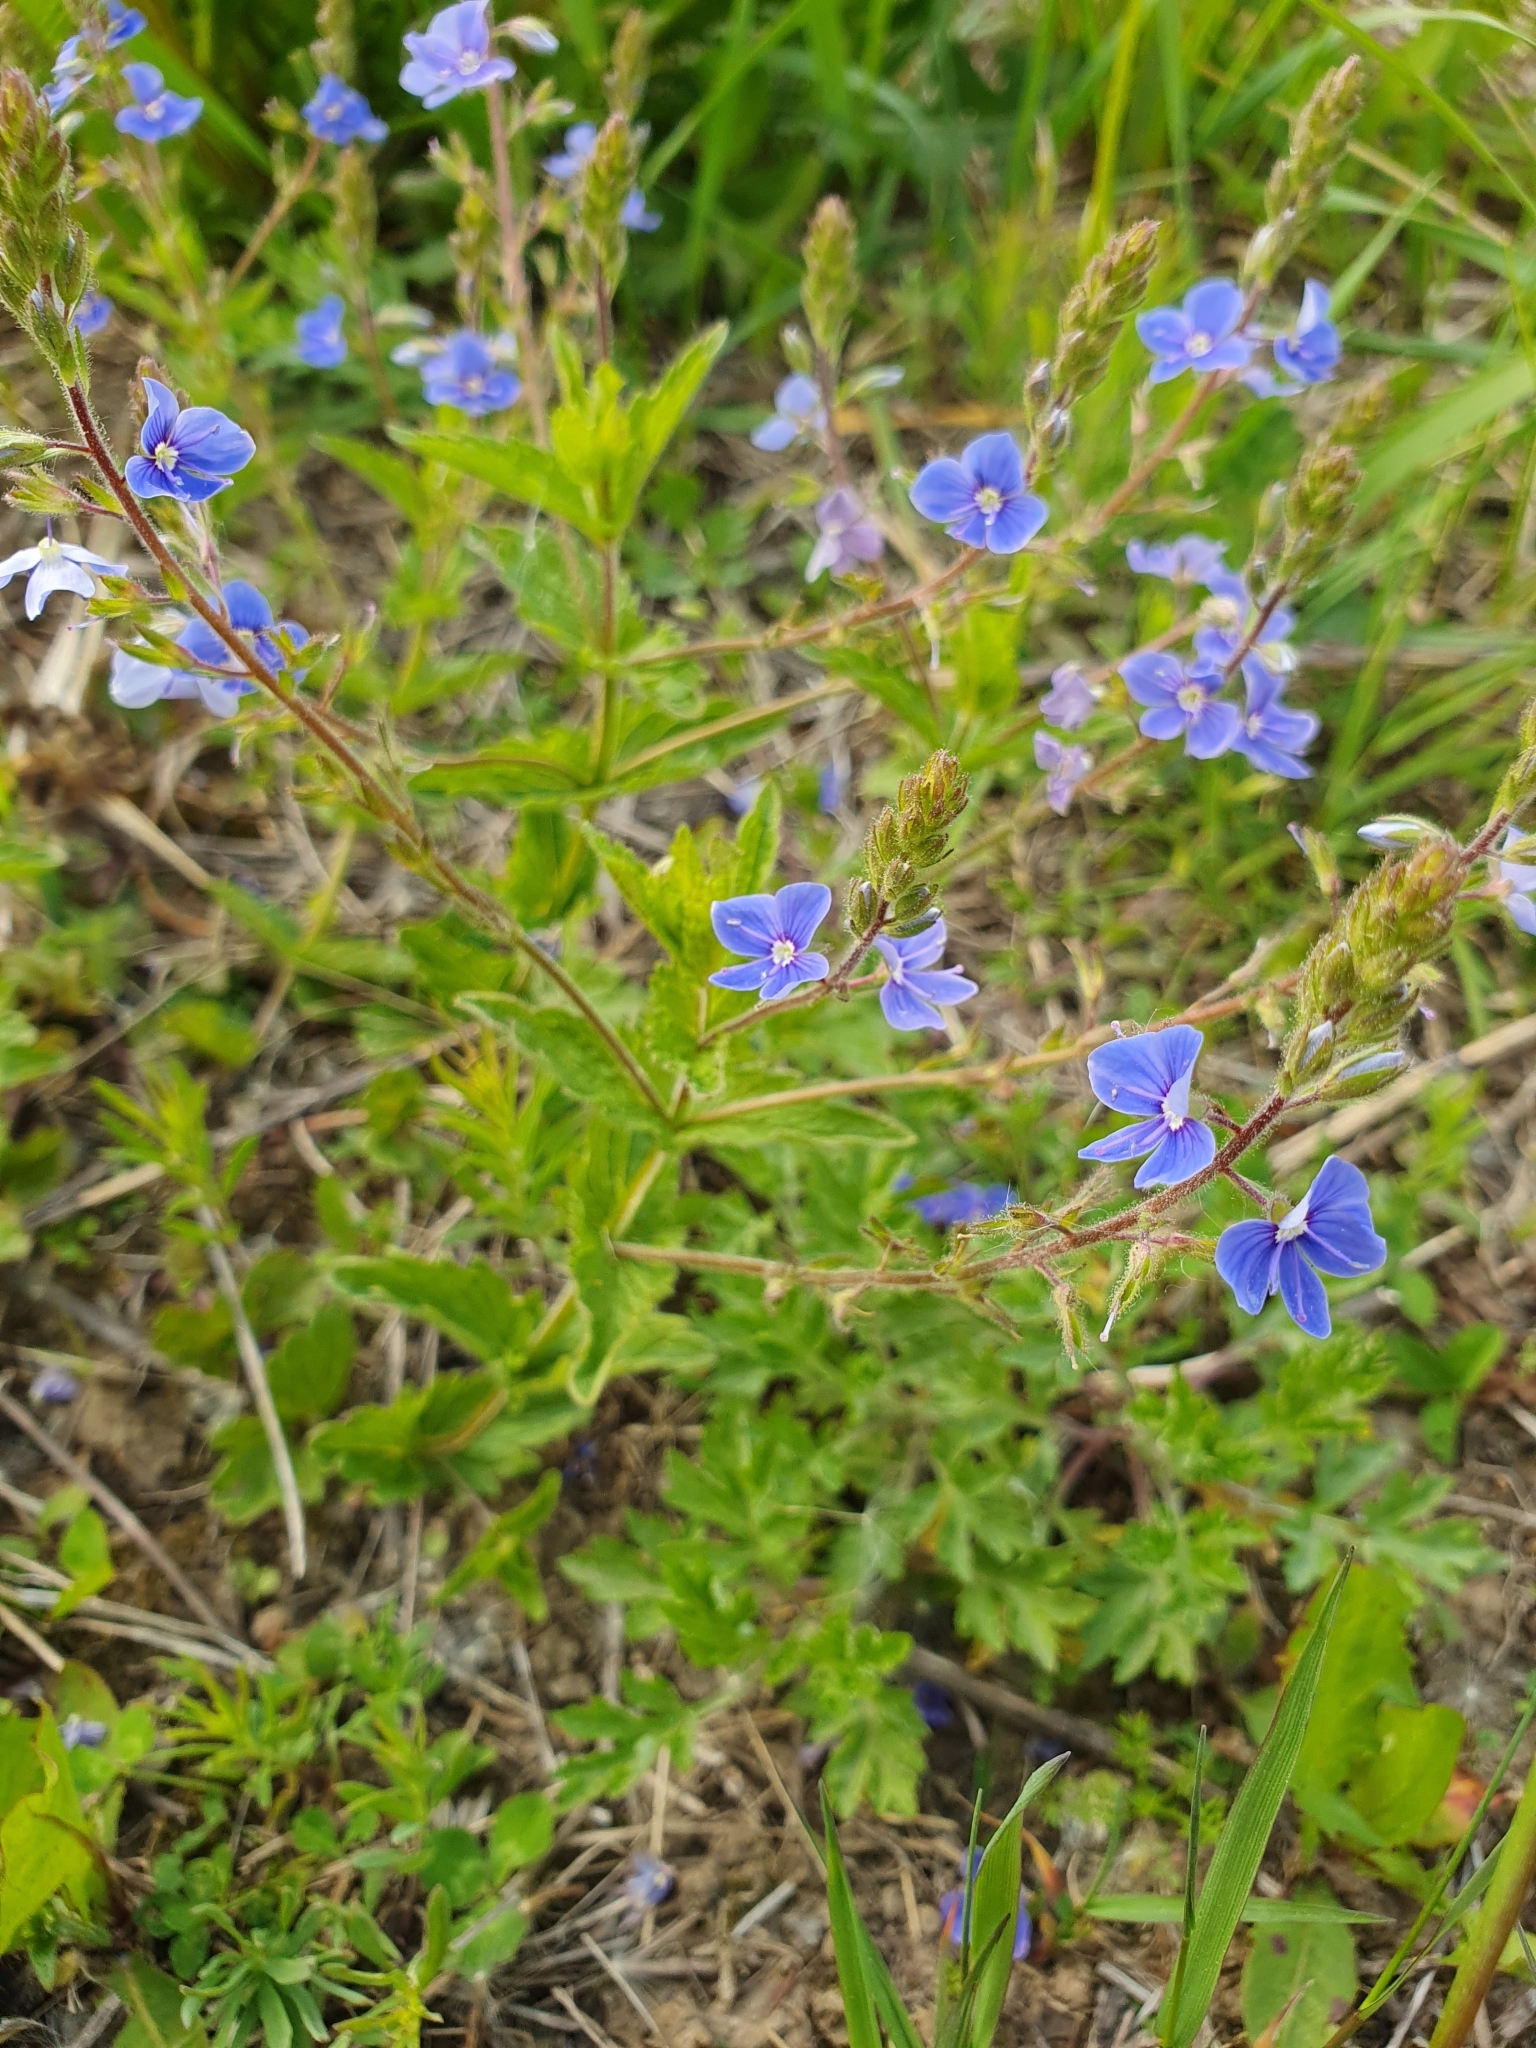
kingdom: Plantae
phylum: Tracheophyta
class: Magnoliopsida
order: Lamiales
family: Plantaginaceae
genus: Veronica
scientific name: Veronica chamaedrys
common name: Germander speedwell
